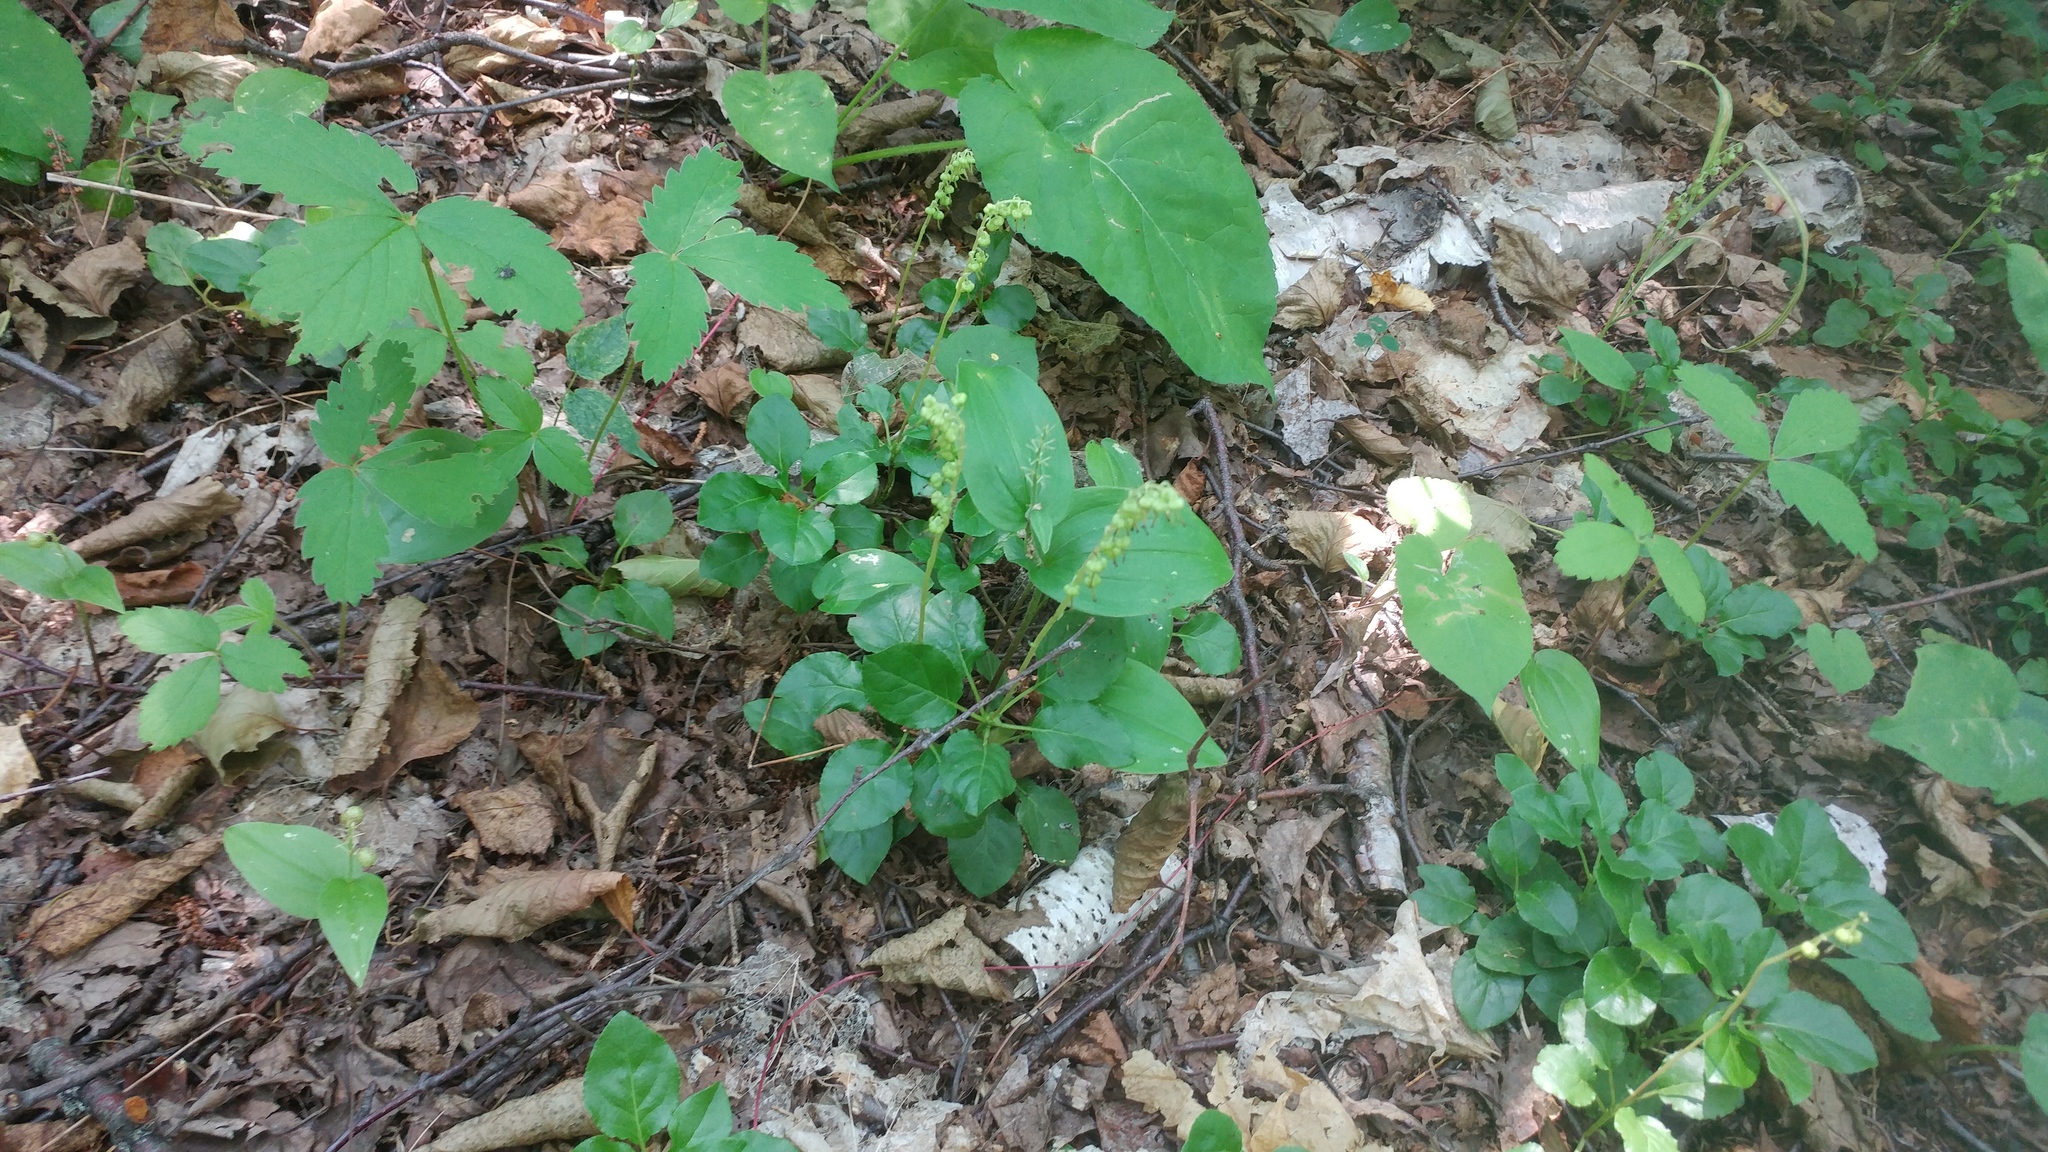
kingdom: Plantae
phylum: Tracheophyta
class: Magnoliopsida
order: Ericales
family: Ericaceae
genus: Orthilia
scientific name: Orthilia secunda
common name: One-sided orthilia
